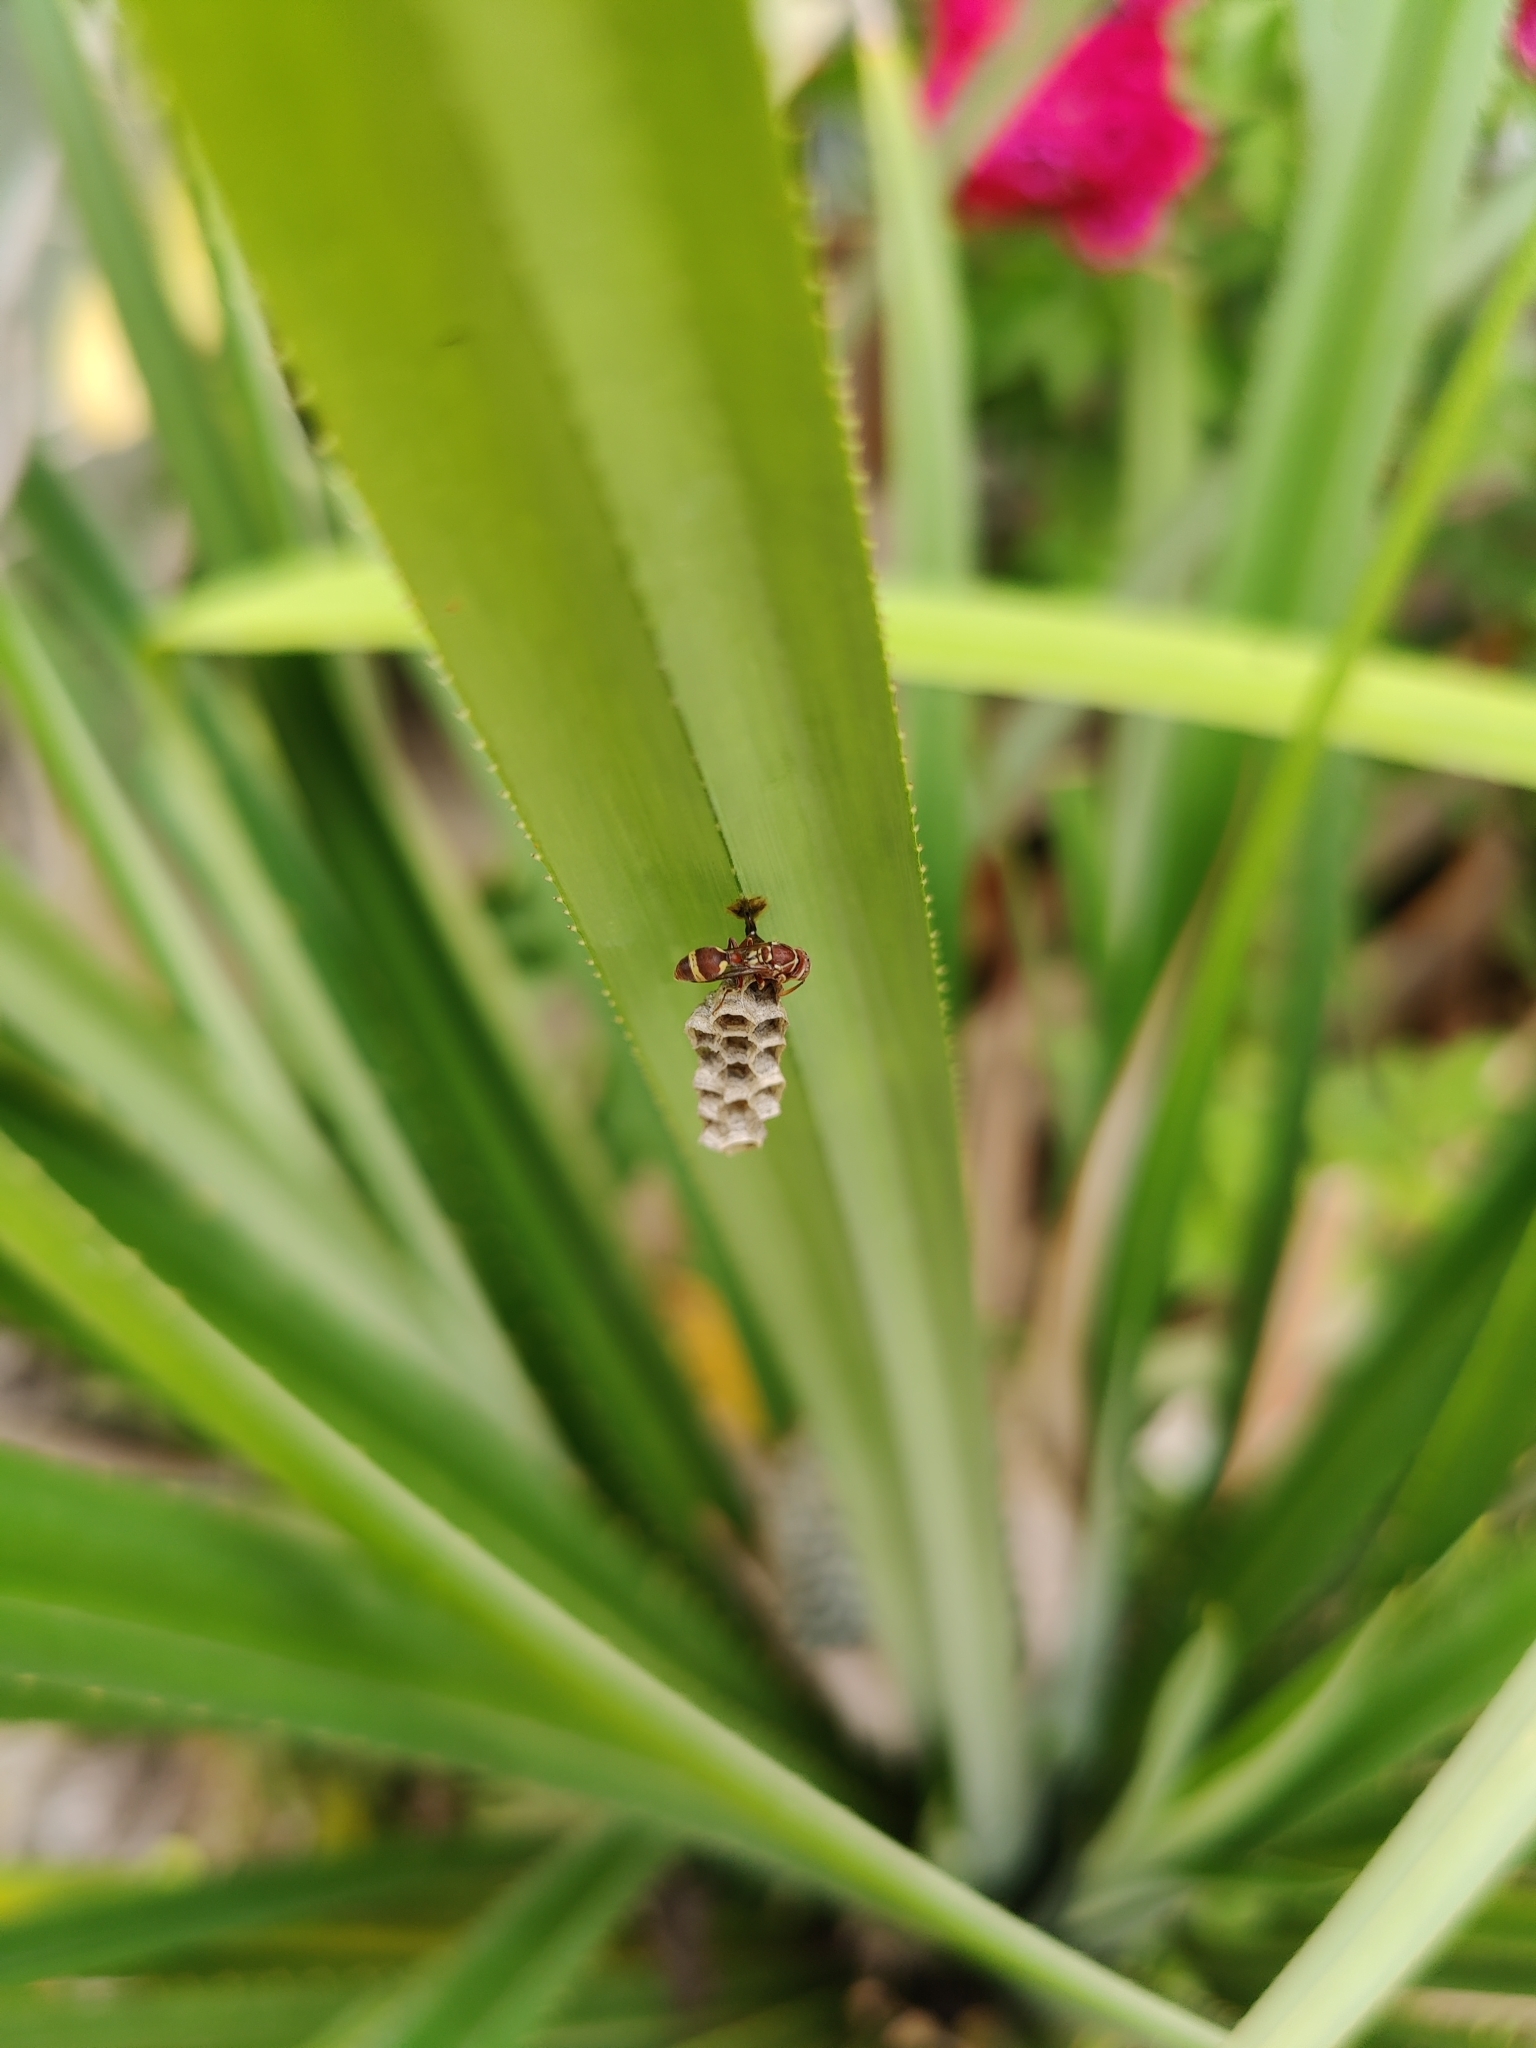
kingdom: Animalia
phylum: Arthropoda
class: Insecta
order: Hymenoptera
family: Vespidae
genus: Ropalidia
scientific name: Ropalidia variegata
